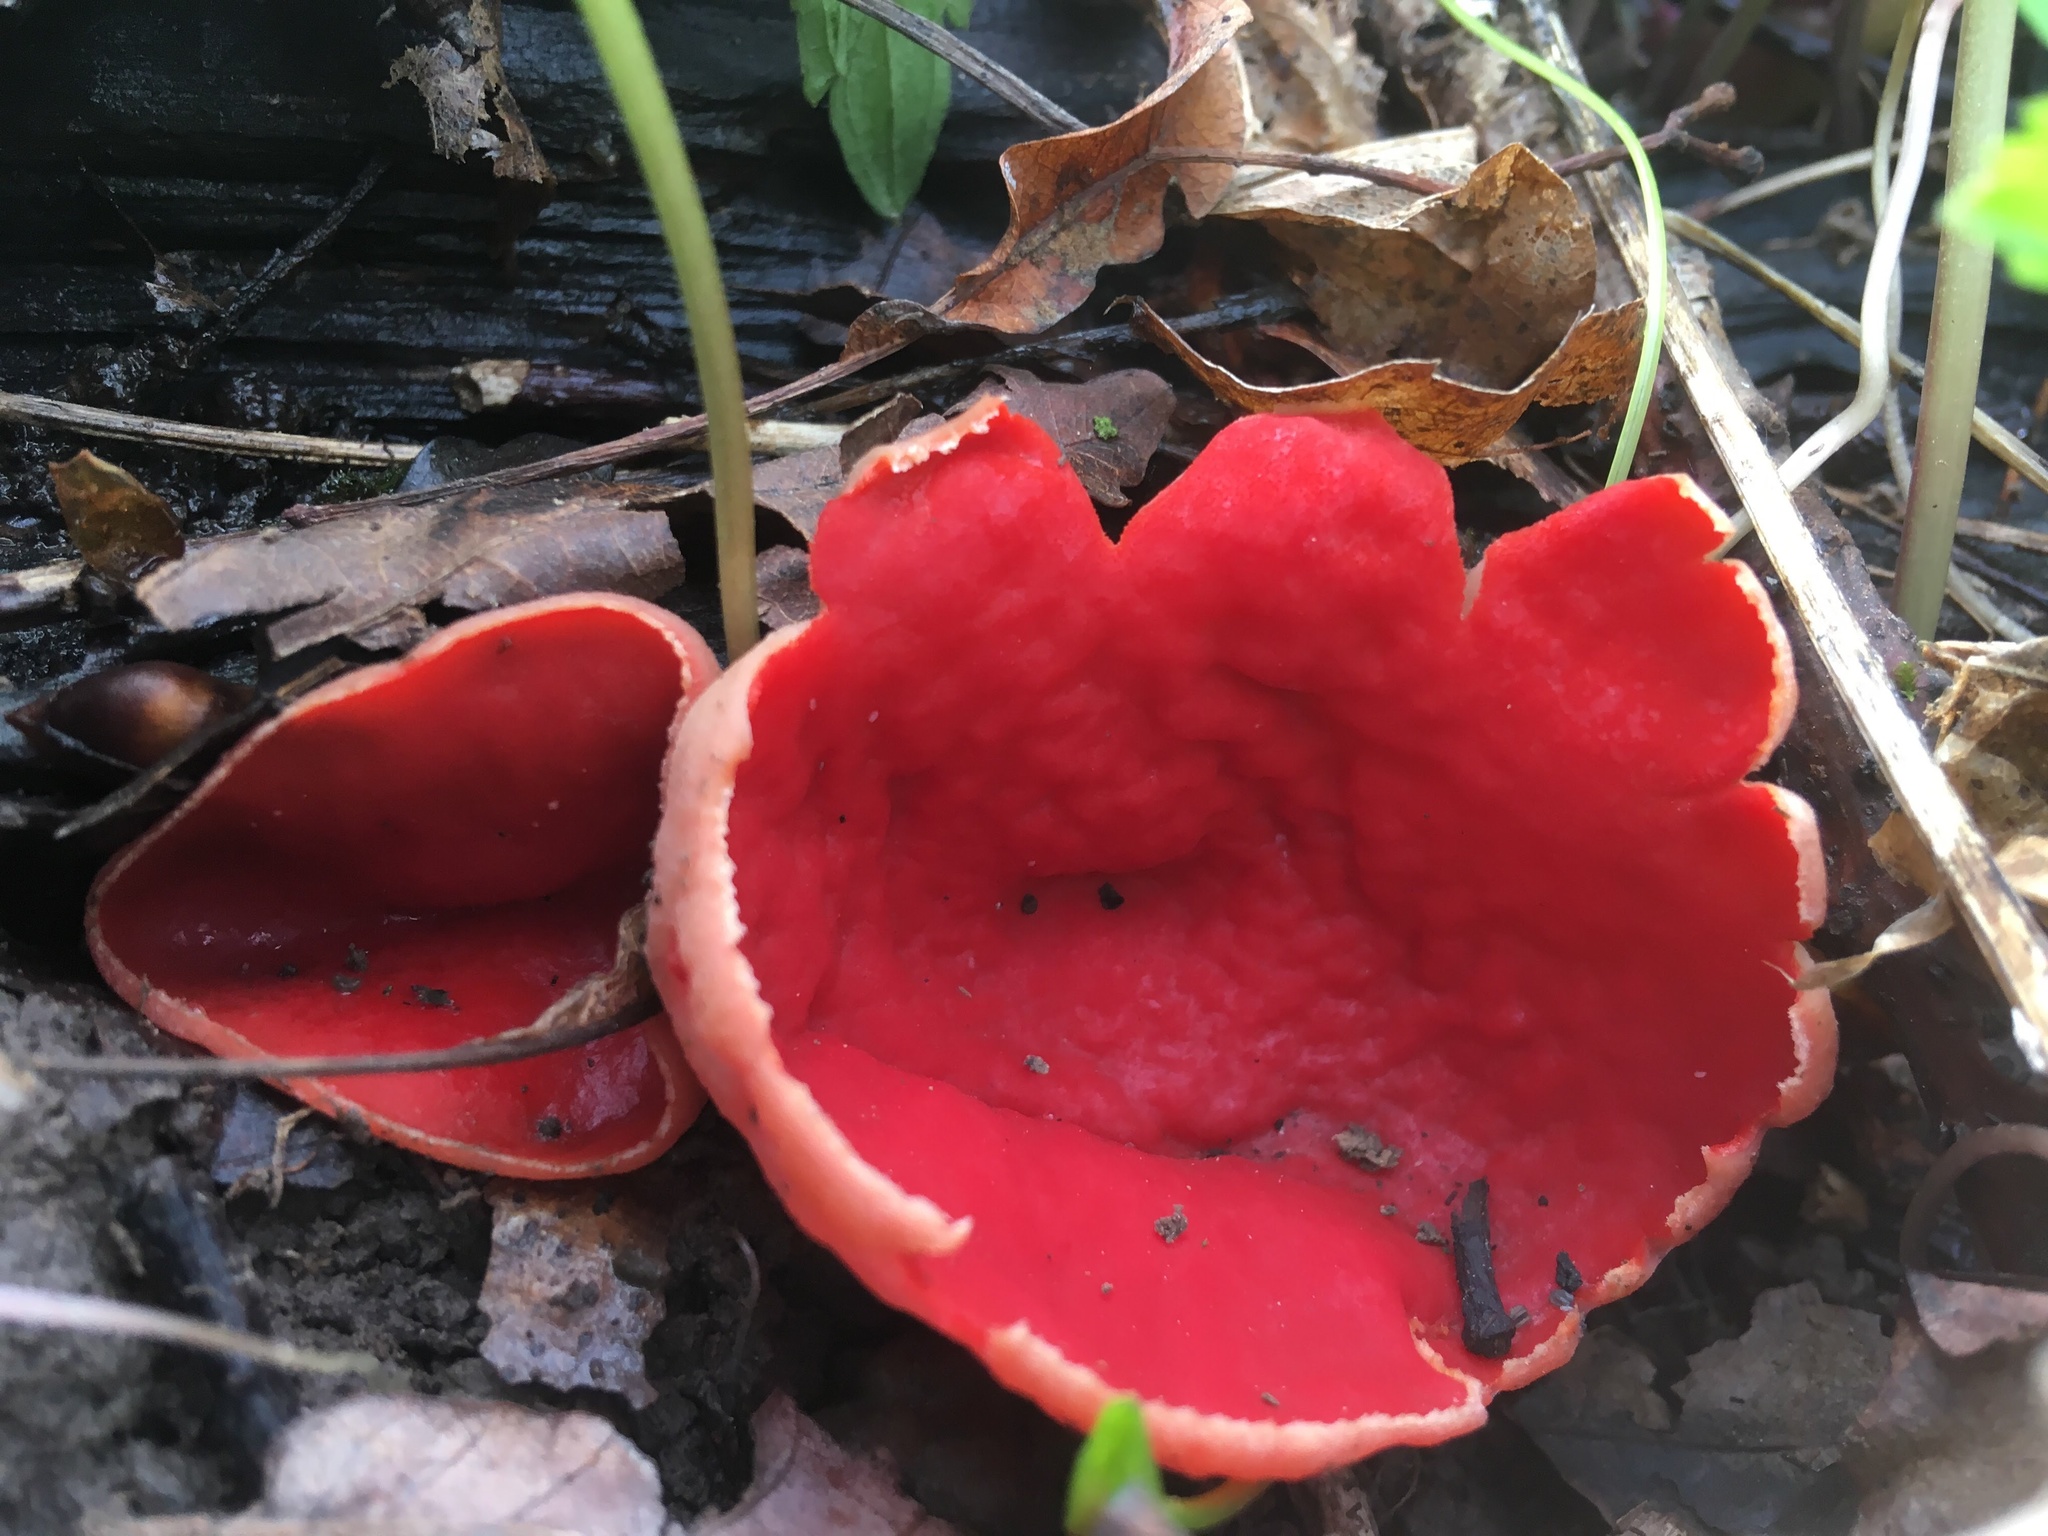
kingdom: Fungi
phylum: Ascomycota
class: Pezizomycetes
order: Pezizales
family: Sarcoscyphaceae
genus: Sarcoscypha
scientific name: Sarcoscypha austriaca
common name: Scarlet elfcup
